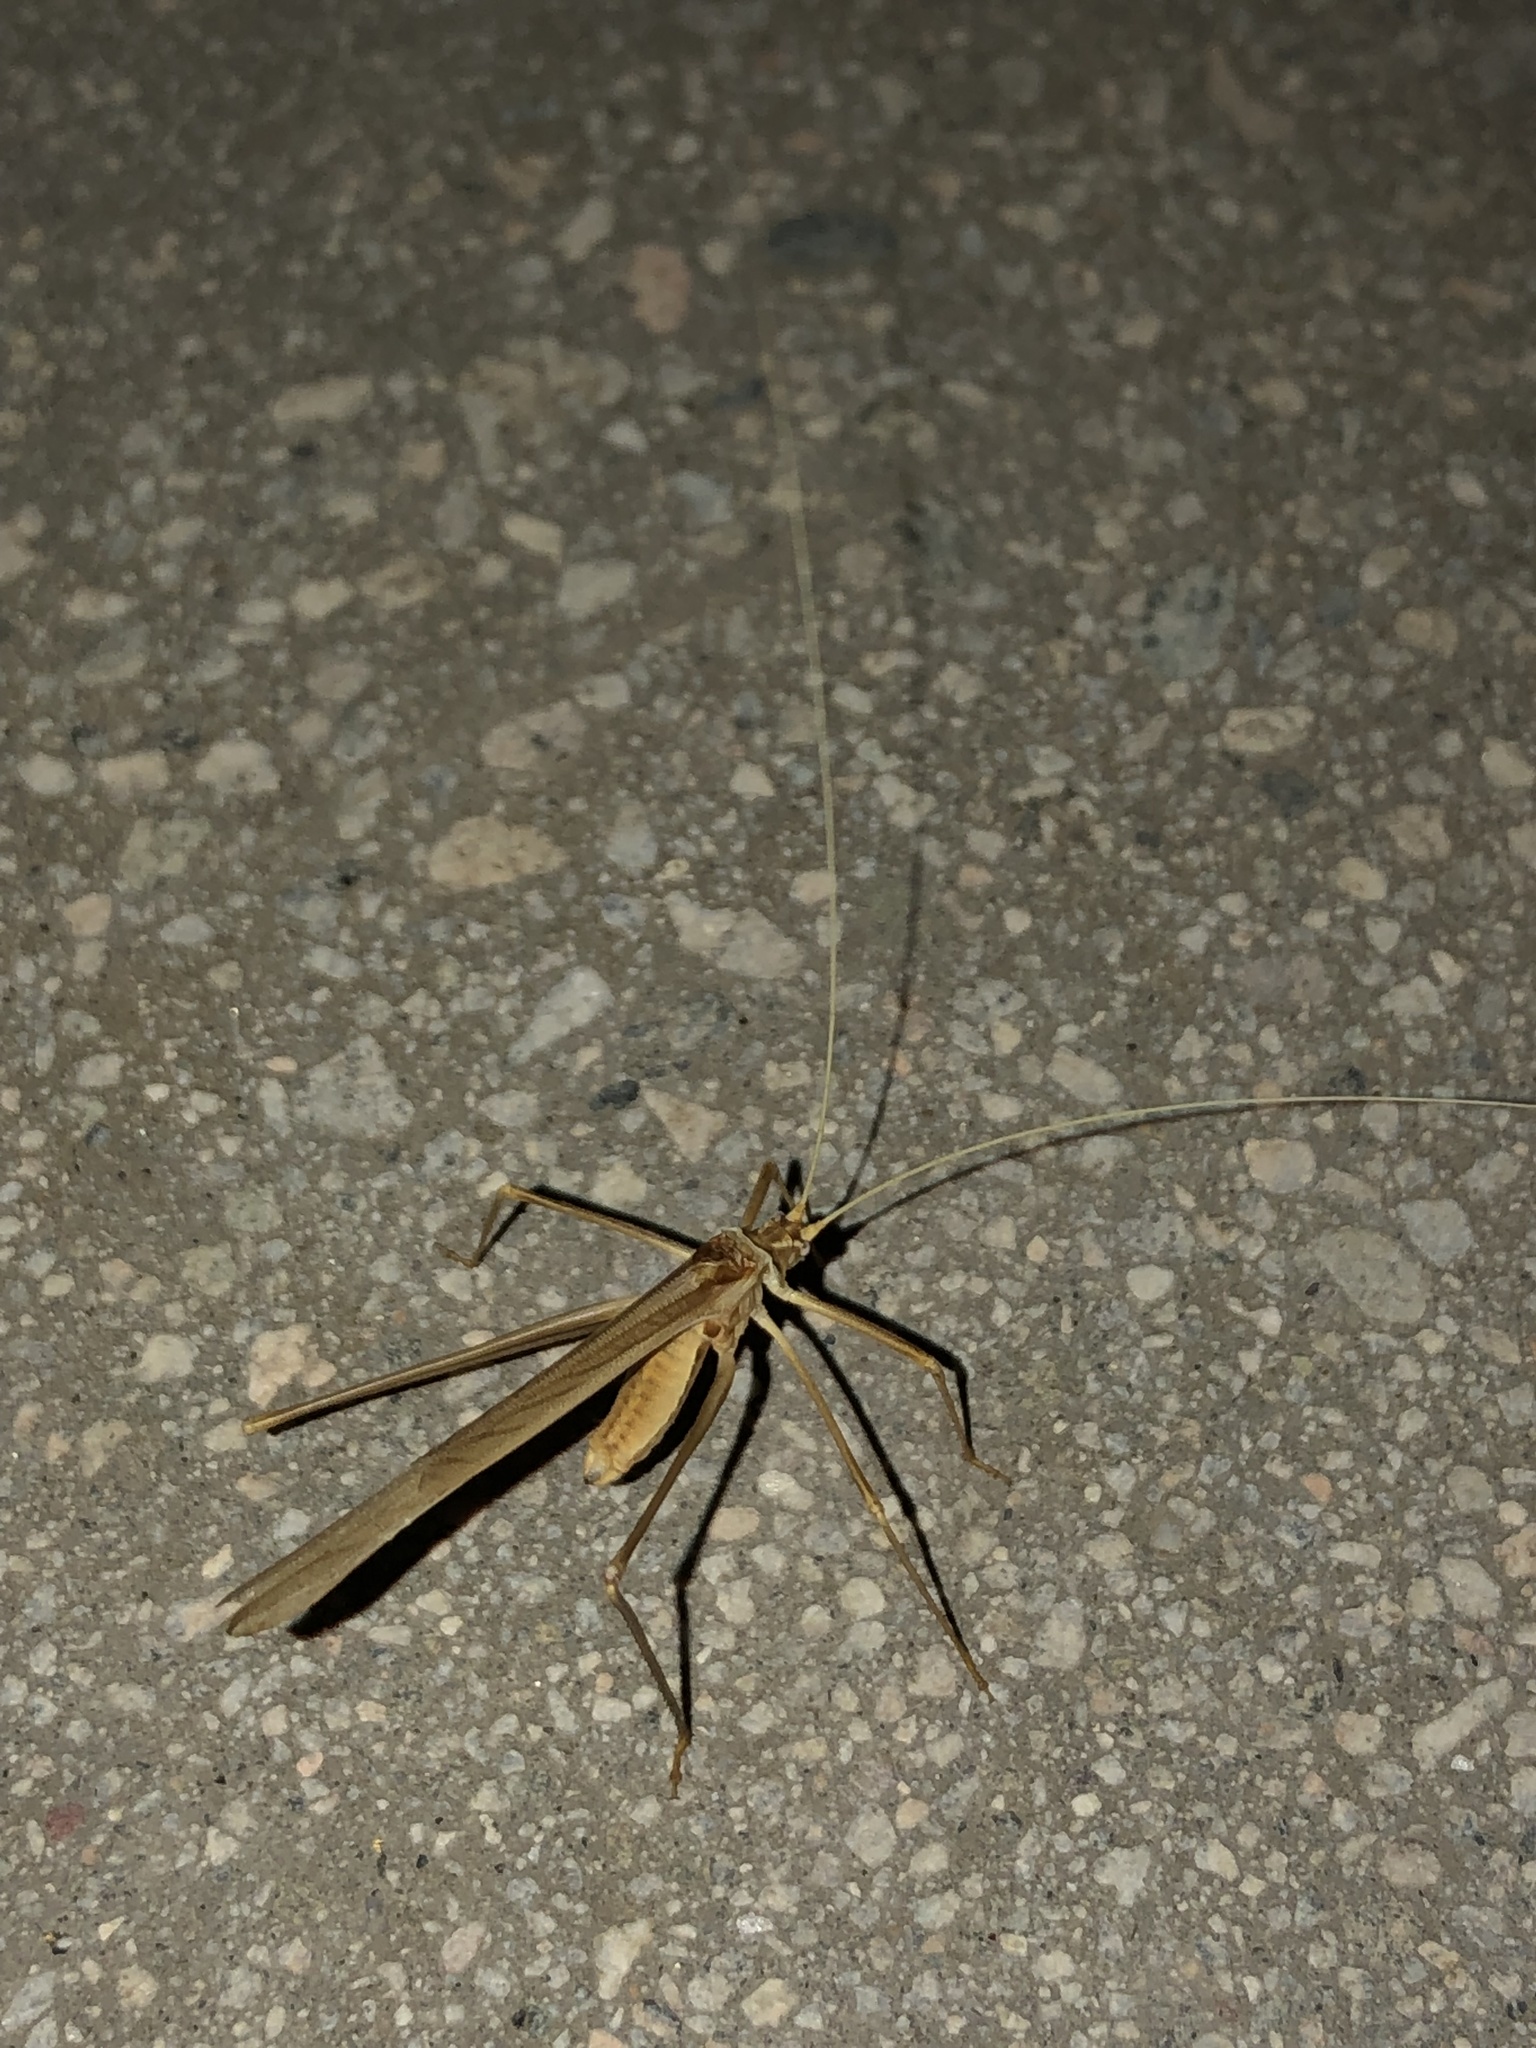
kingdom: Animalia
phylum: Arthropoda
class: Insecta
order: Orthoptera
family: Tettigoniidae
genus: Arethaea
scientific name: Arethaea brevicauda
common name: Short-tail thread-legged katydid
